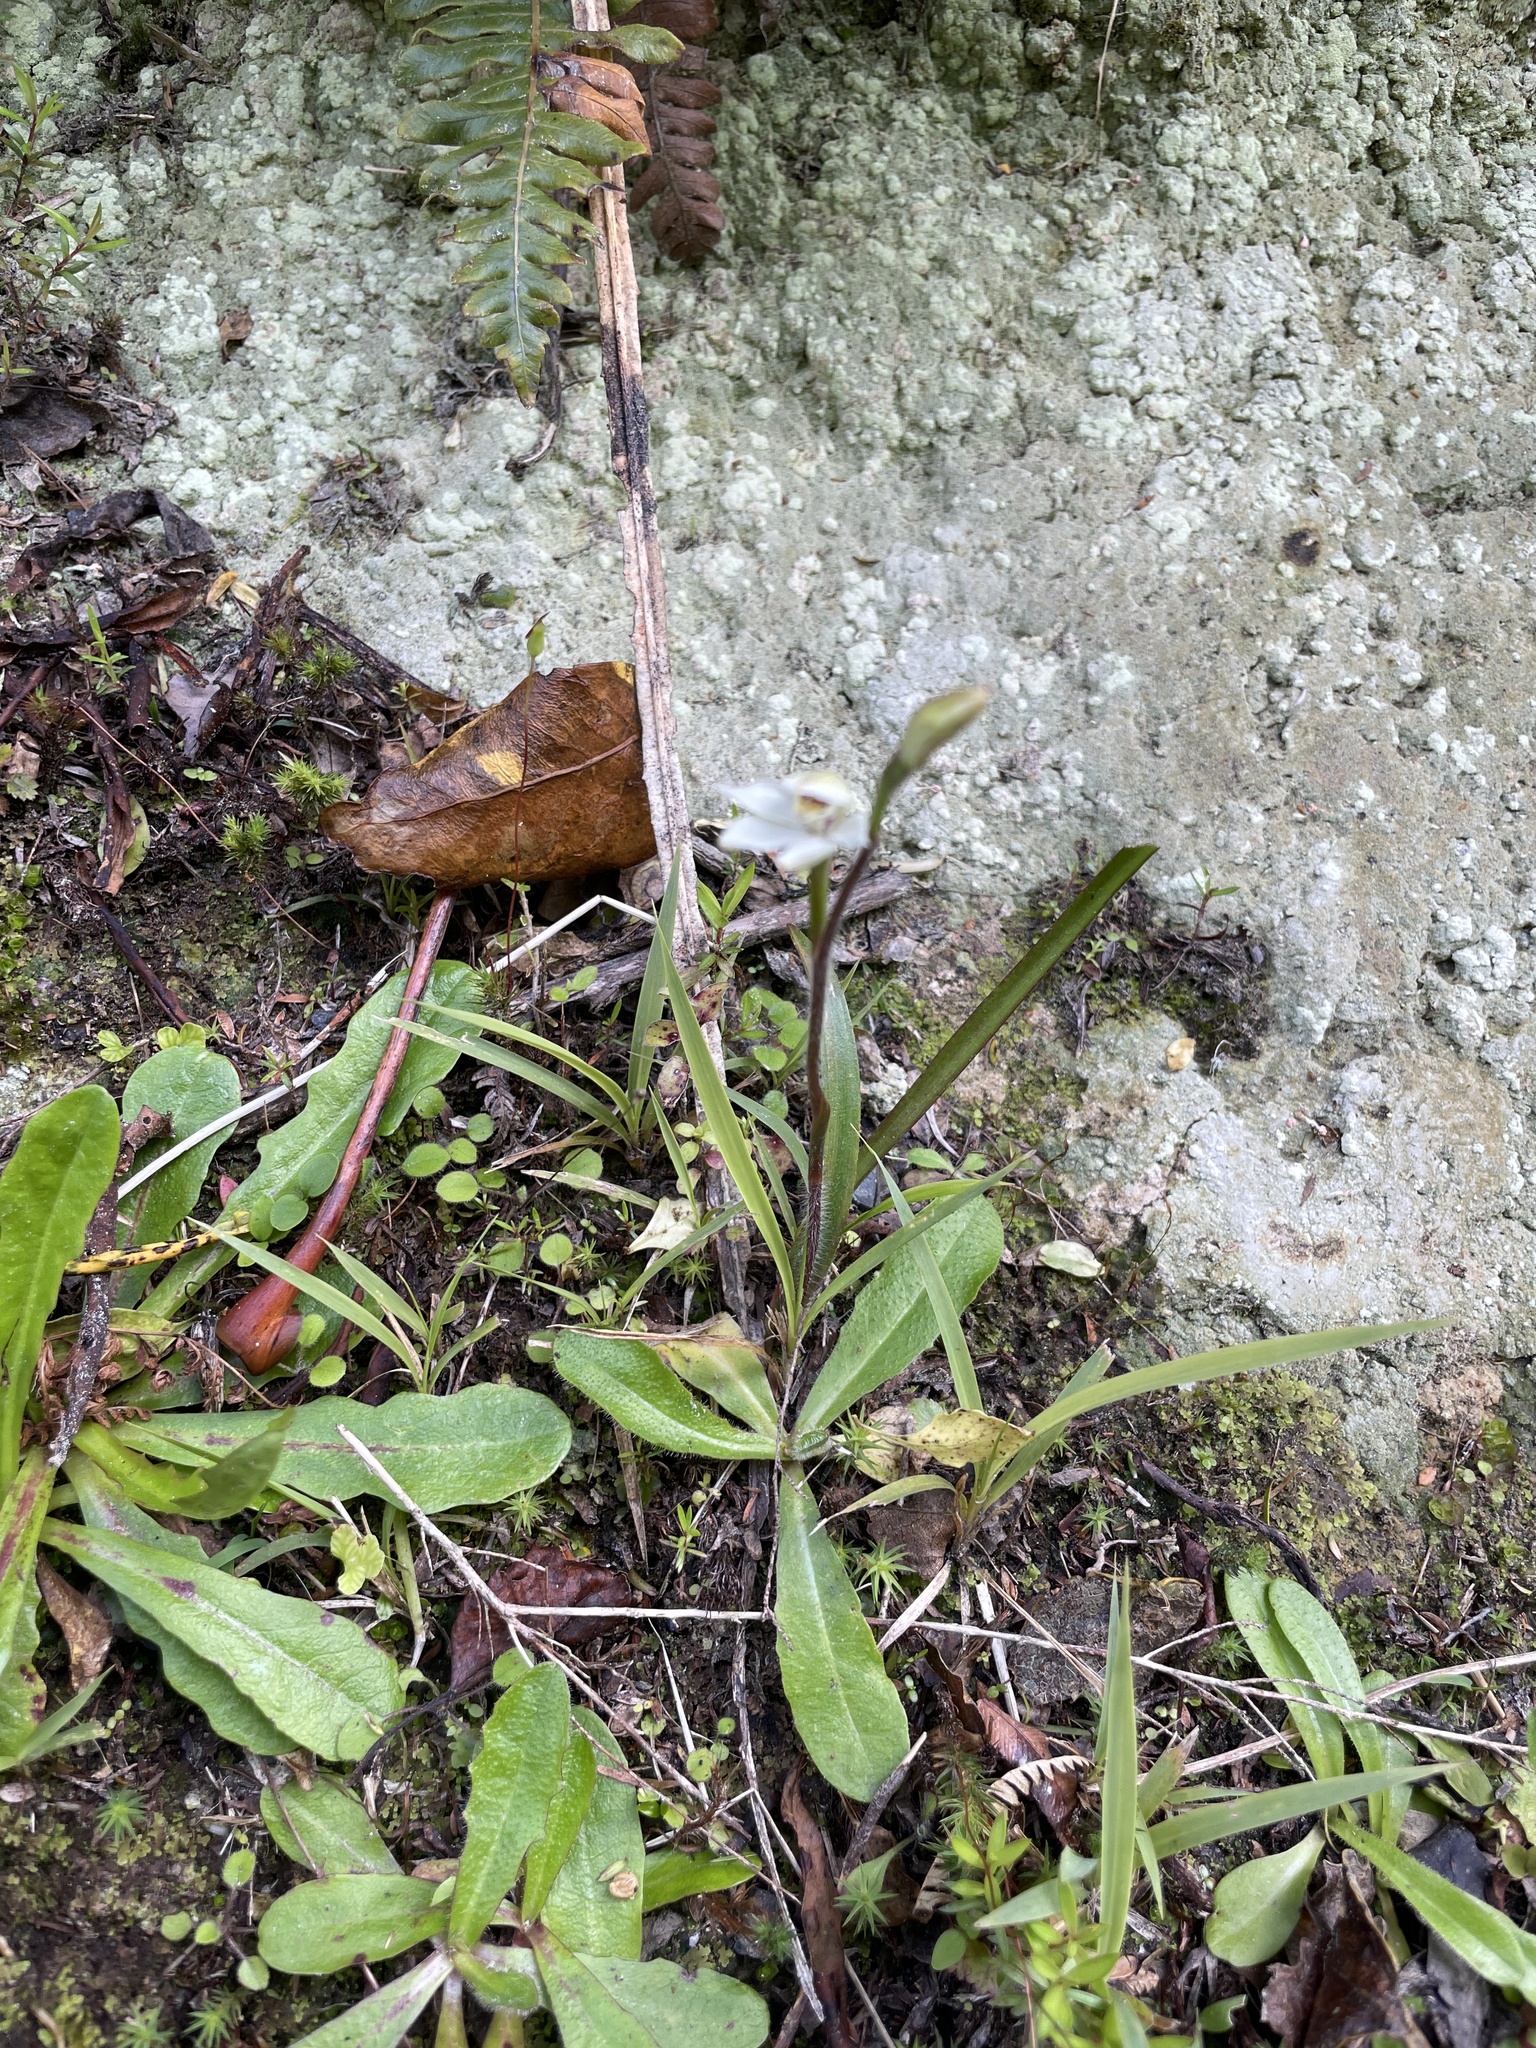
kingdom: Plantae
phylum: Tracheophyta
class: Liliopsida
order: Asparagales
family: Orchidaceae
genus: Caladenia
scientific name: Caladenia lyallii
